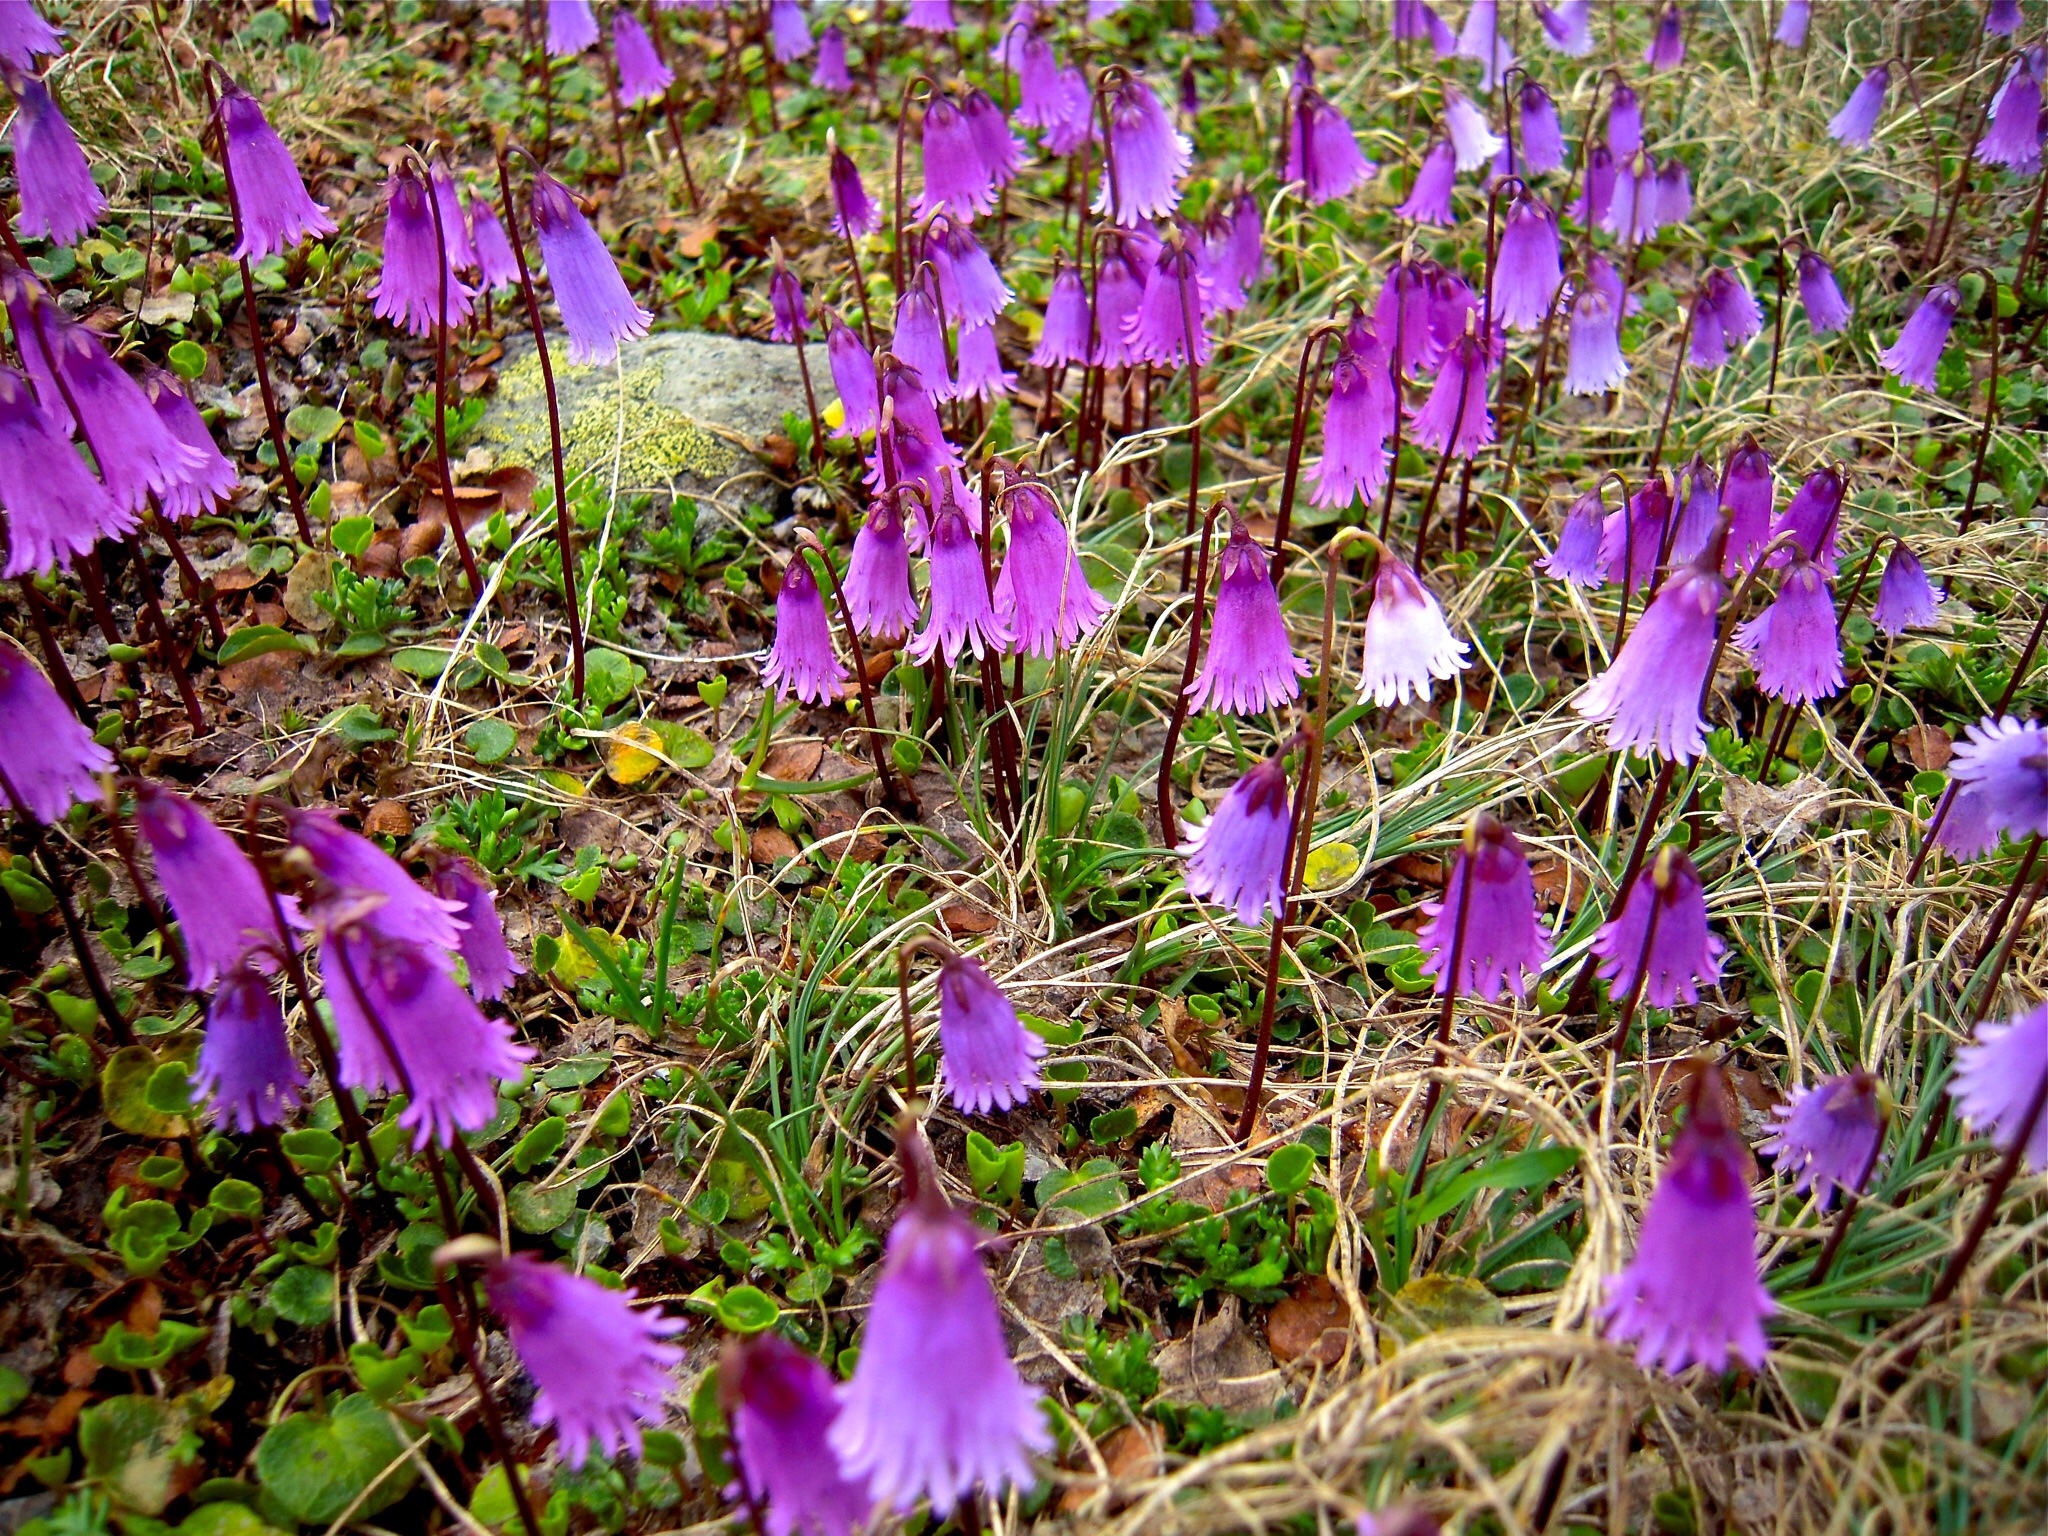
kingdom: Plantae
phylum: Tracheophyta
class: Magnoliopsida
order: Ericales
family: Primulaceae
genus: Soldanella
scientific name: Soldanella pusilla
